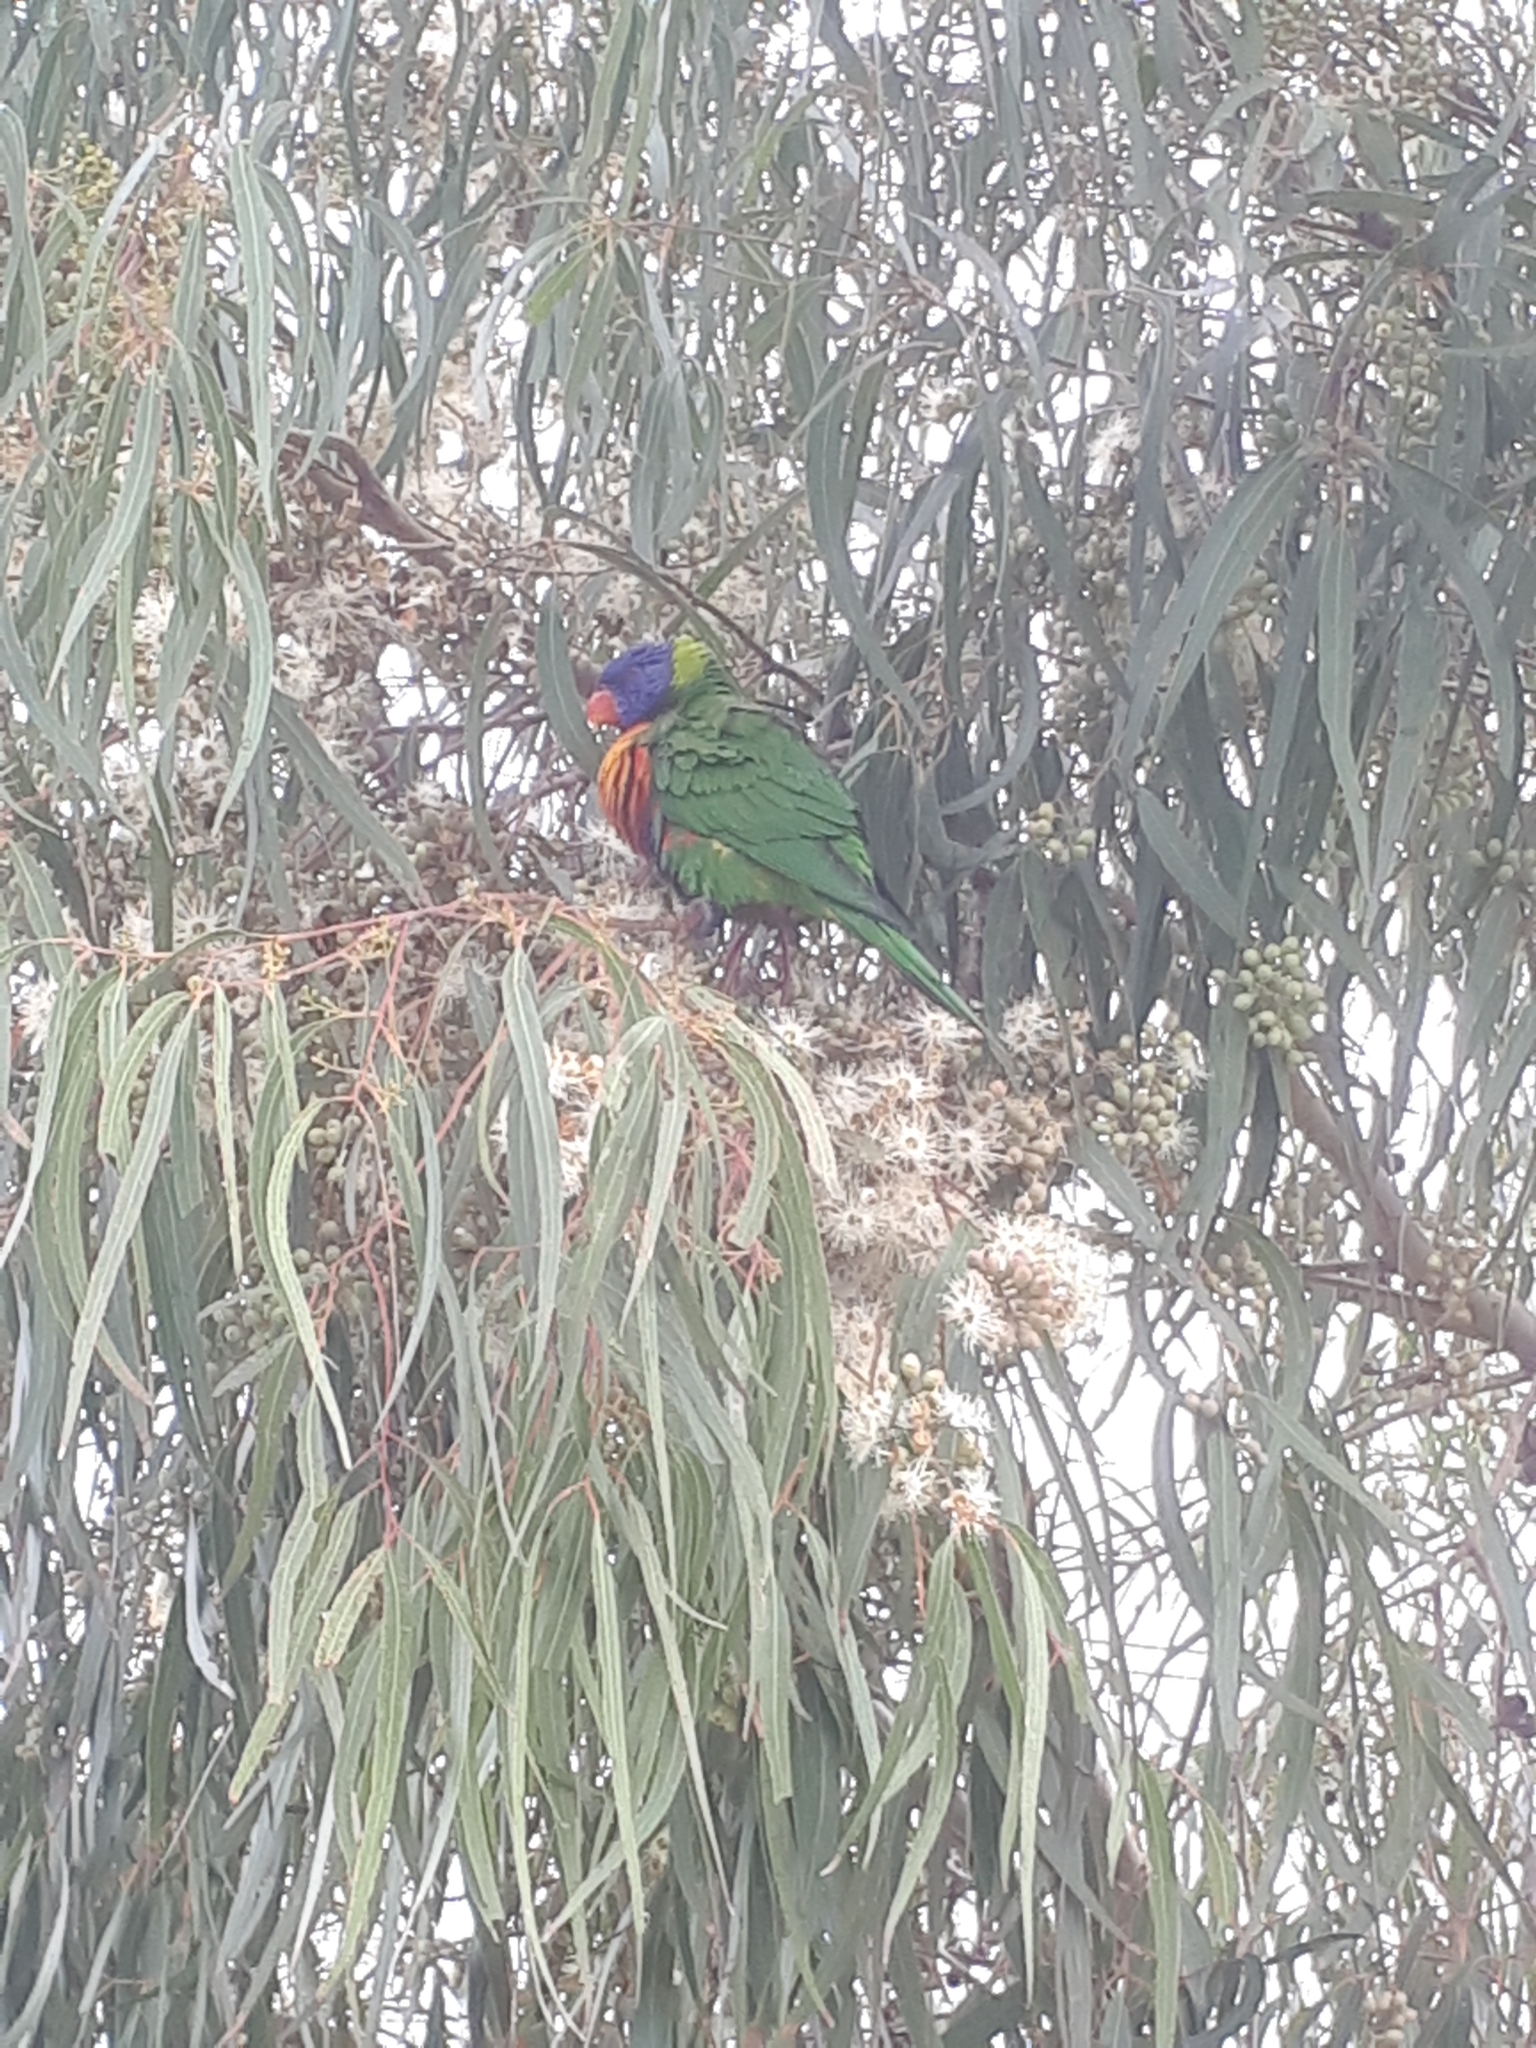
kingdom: Animalia
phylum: Chordata
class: Aves
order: Psittaciformes
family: Psittacidae
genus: Trichoglossus
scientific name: Trichoglossus haematodus
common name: Coconut lorikeet
